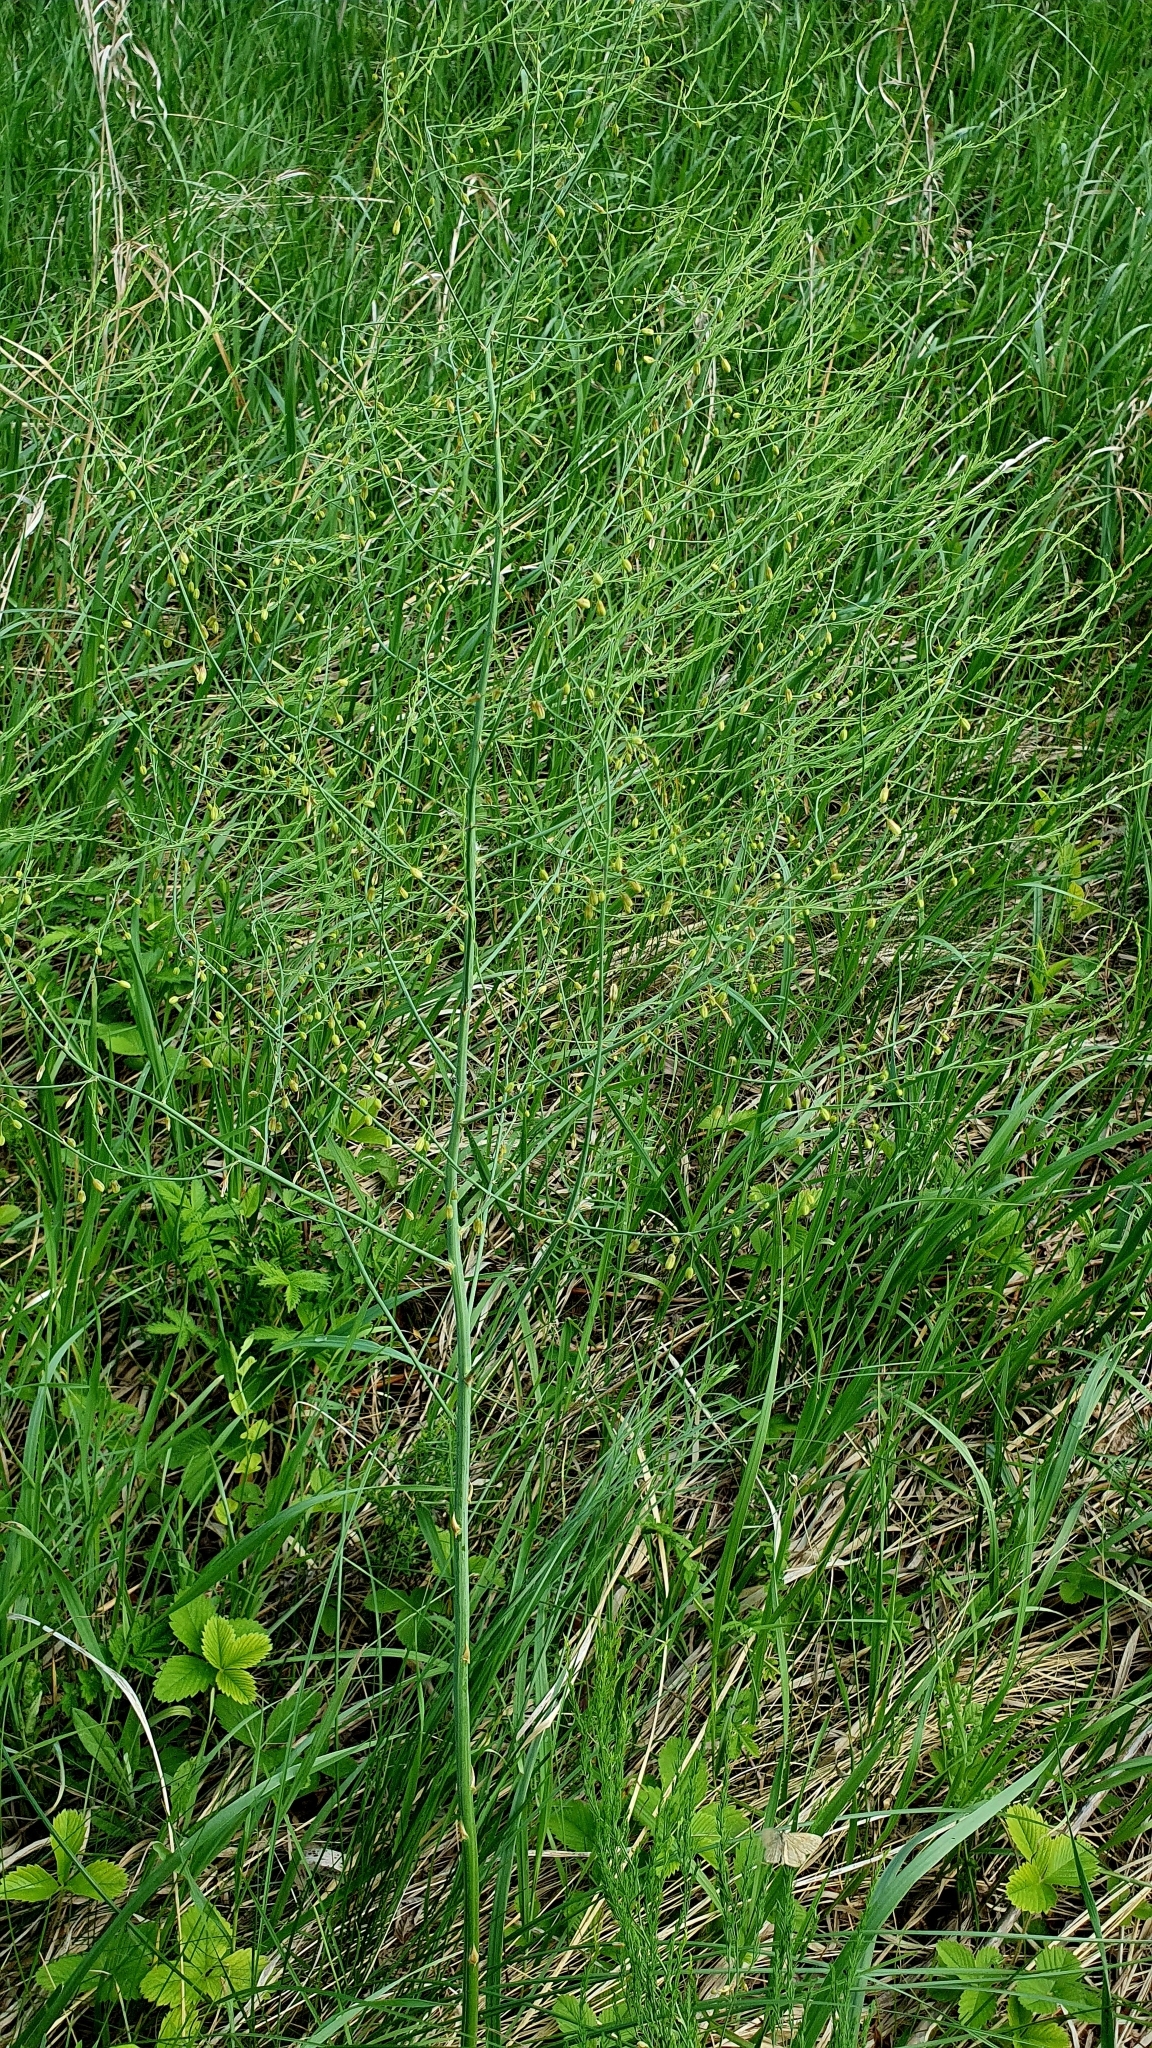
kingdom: Plantae
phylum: Tracheophyta
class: Liliopsida
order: Asparagales
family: Asparagaceae
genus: Asparagus
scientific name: Asparagus officinalis
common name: Garden asparagus
